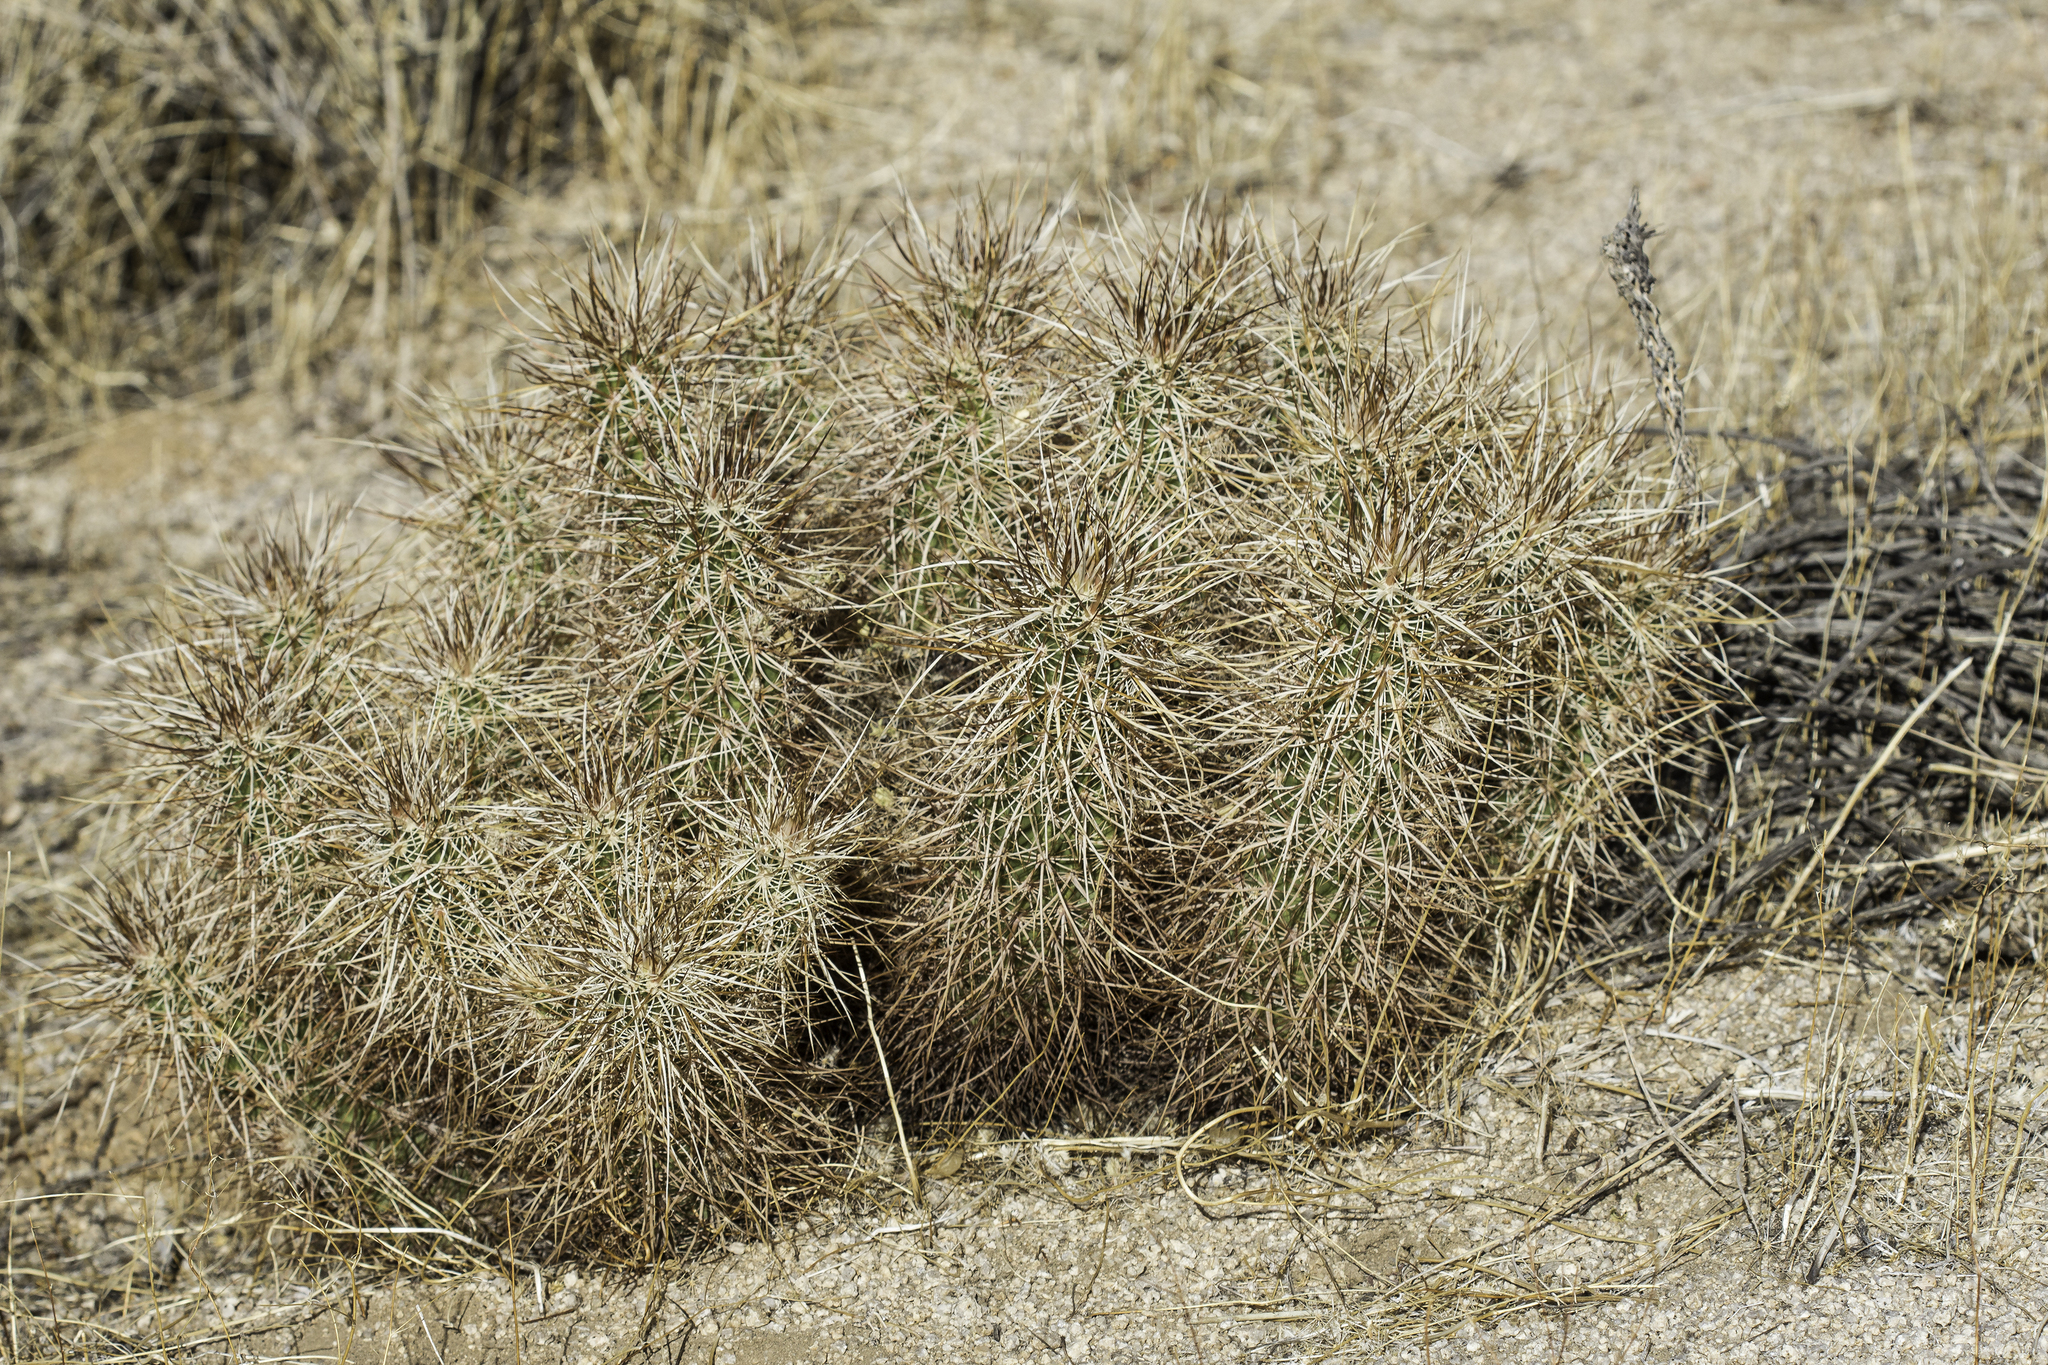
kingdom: Plantae
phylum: Tracheophyta
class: Magnoliopsida
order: Caryophyllales
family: Cactaceae
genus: Echinocereus
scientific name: Echinocereus engelmannii
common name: Engelmann's hedgehog cactus
